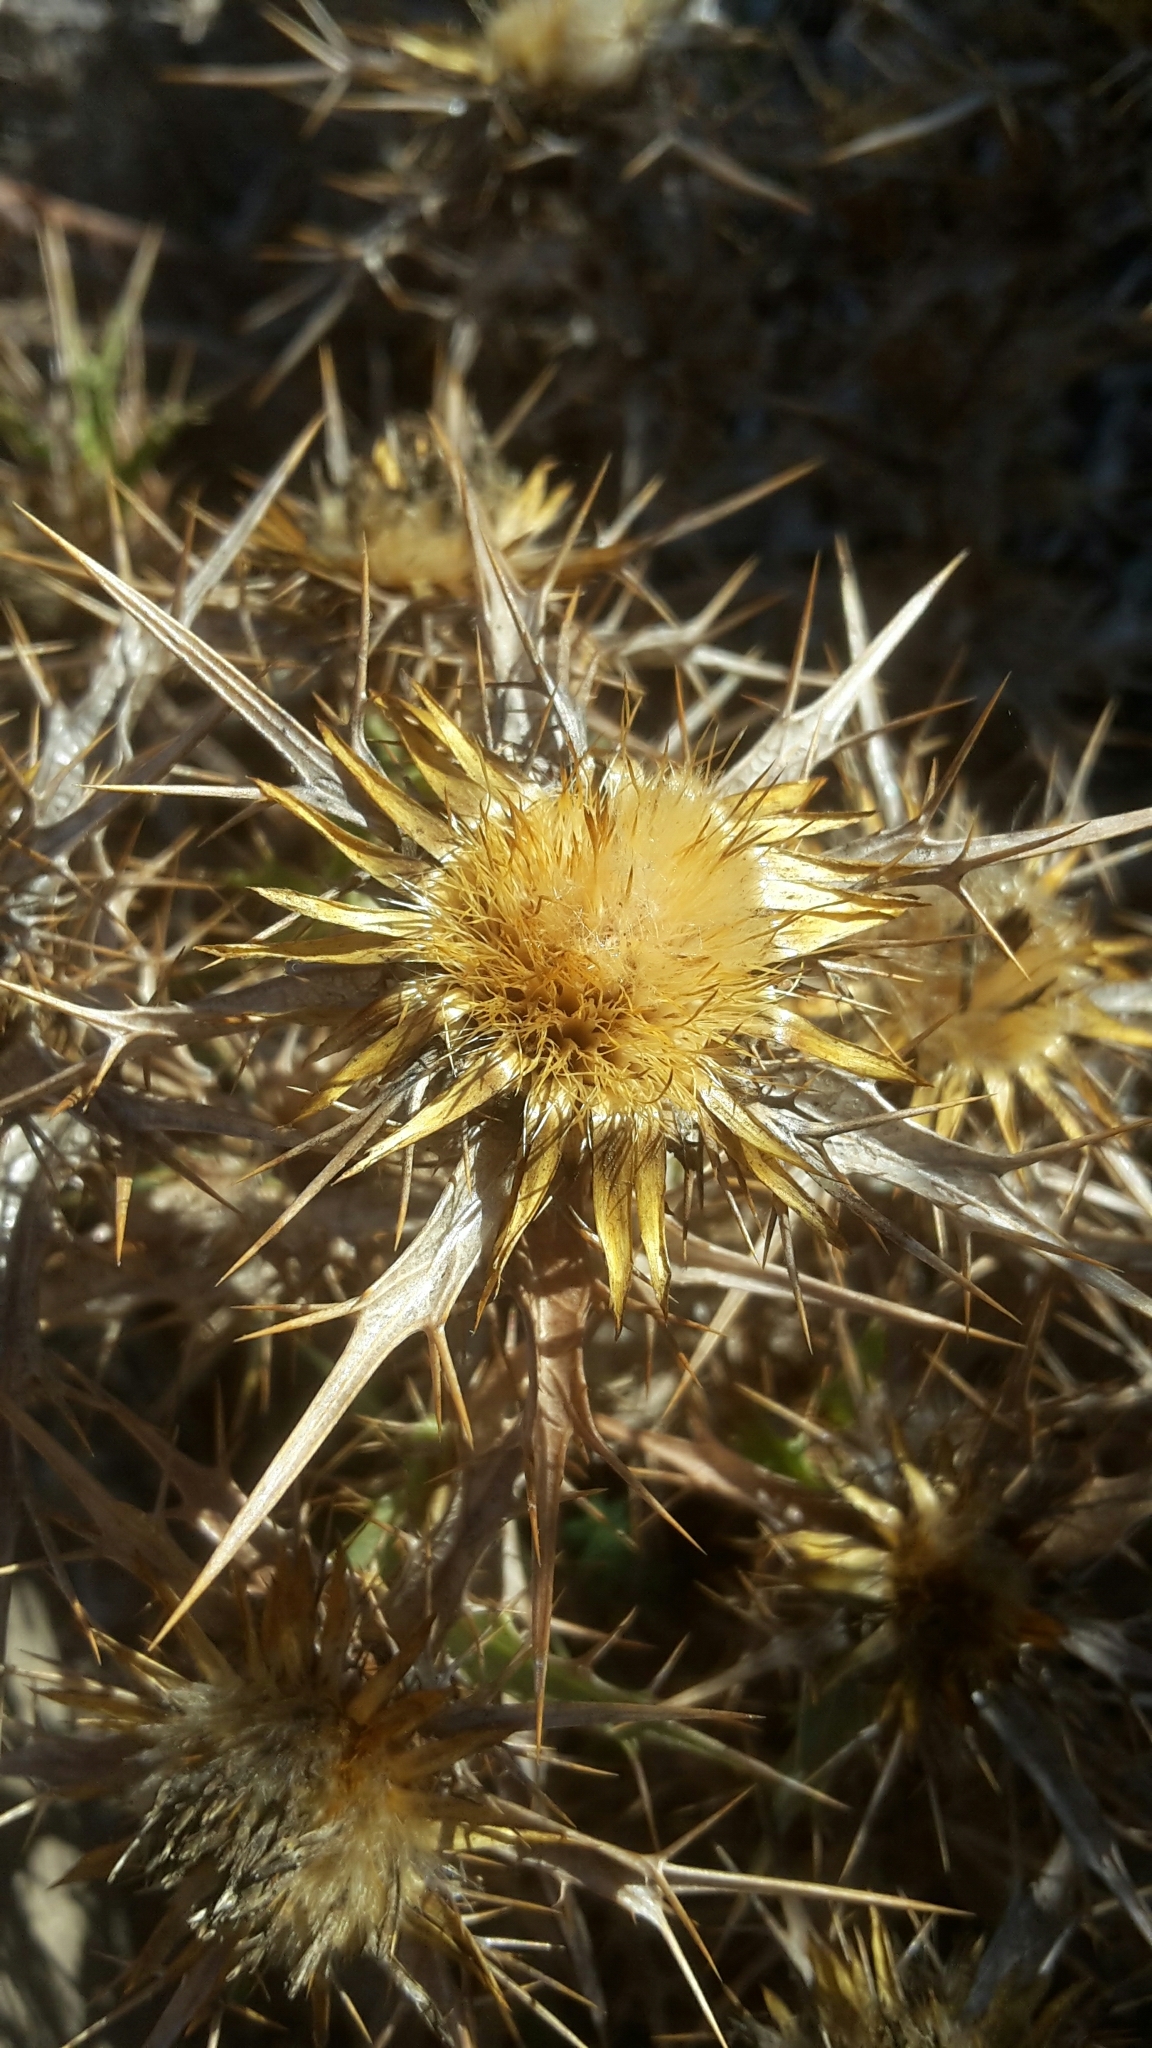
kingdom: Plantae
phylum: Tracheophyta
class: Magnoliopsida
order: Asterales
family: Asteraceae
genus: Carlina
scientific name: Carlina corymbosa
